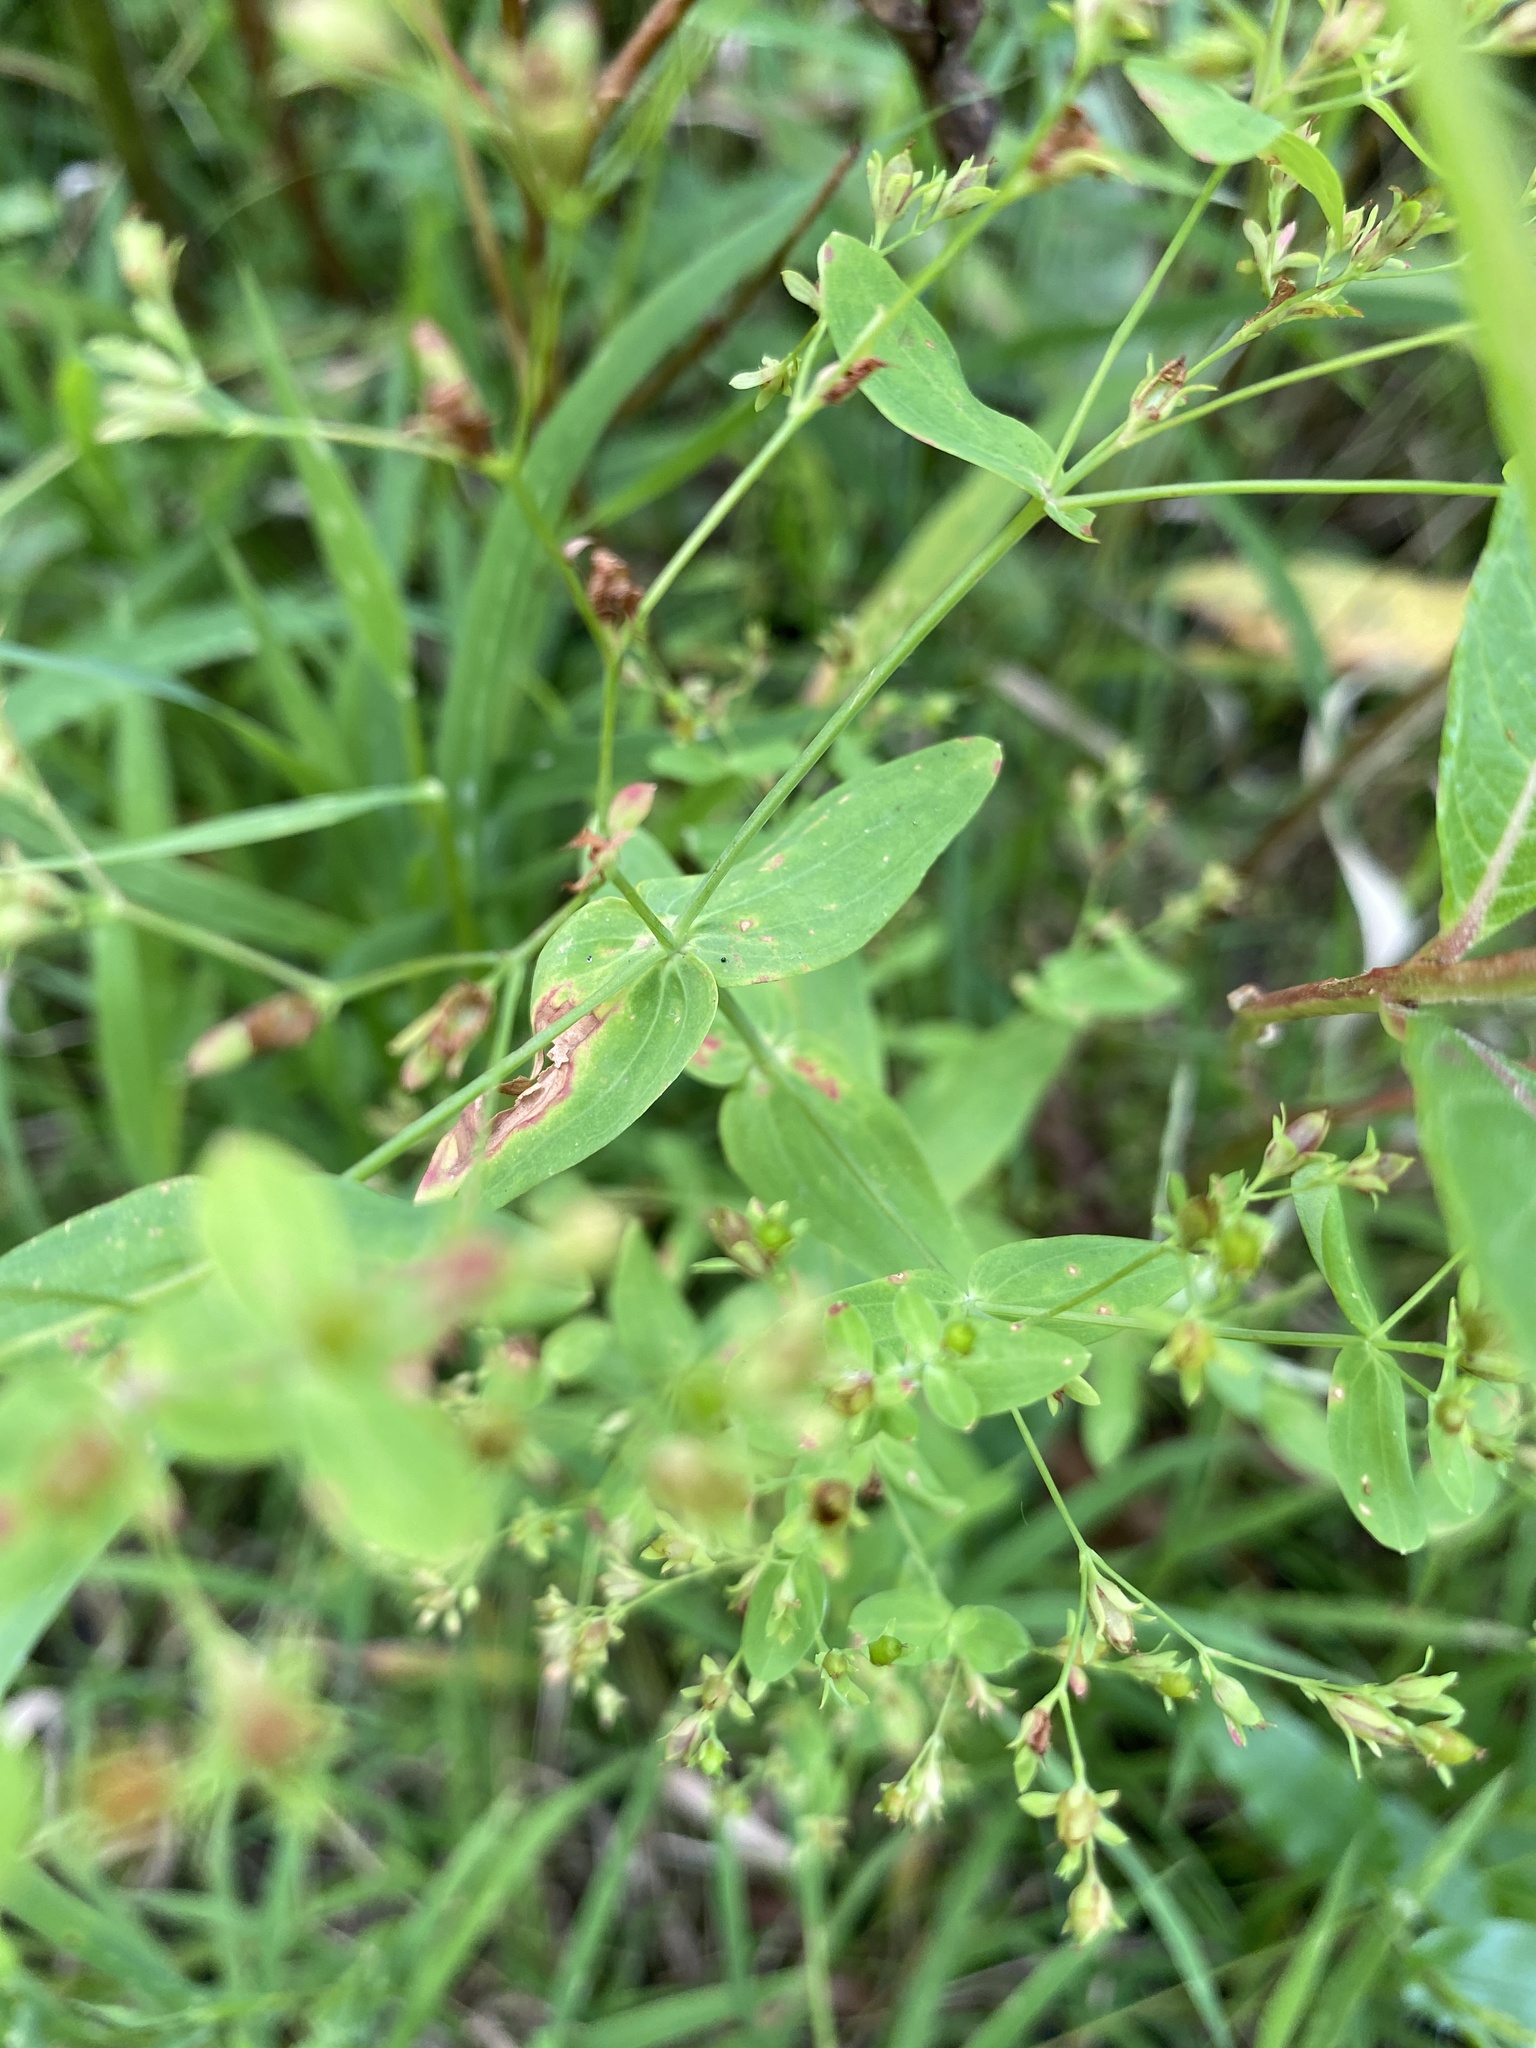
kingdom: Plantae
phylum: Tracheophyta
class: Magnoliopsida
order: Malpighiales
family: Hypericaceae
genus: Hypericum
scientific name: Hypericum mutilum
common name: Dwarf st. john's-wort
